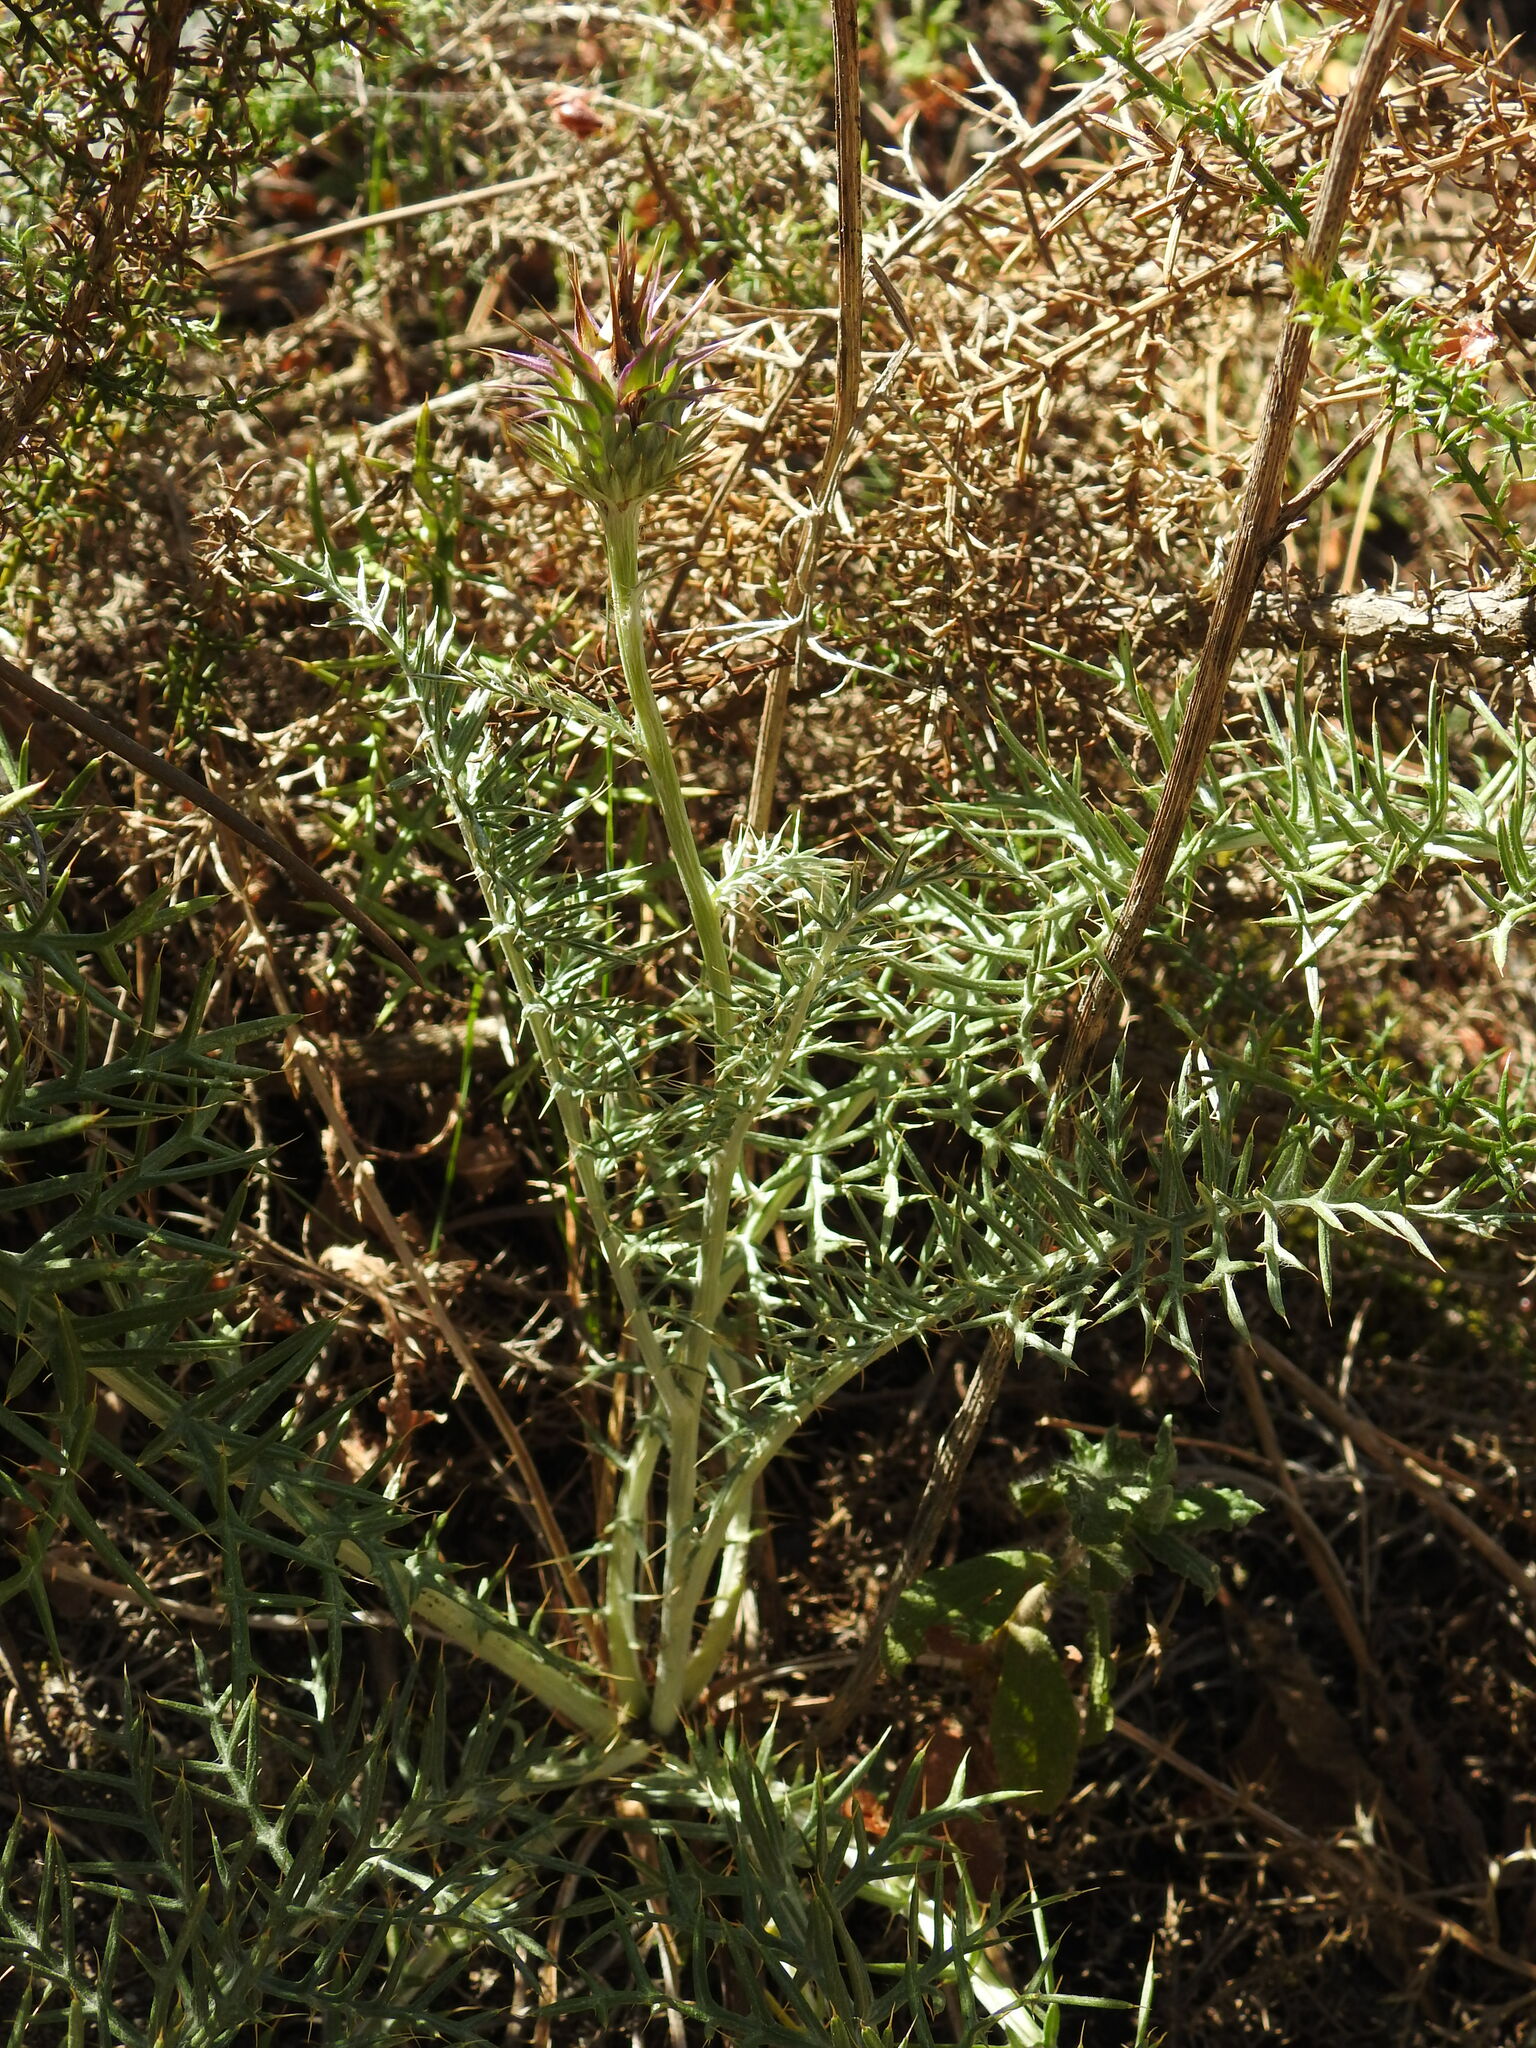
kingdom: Plantae
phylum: Tracheophyta
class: Magnoliopsida
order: Asterales
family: Asteraceae
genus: Cynara
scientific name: Cynara humilis
